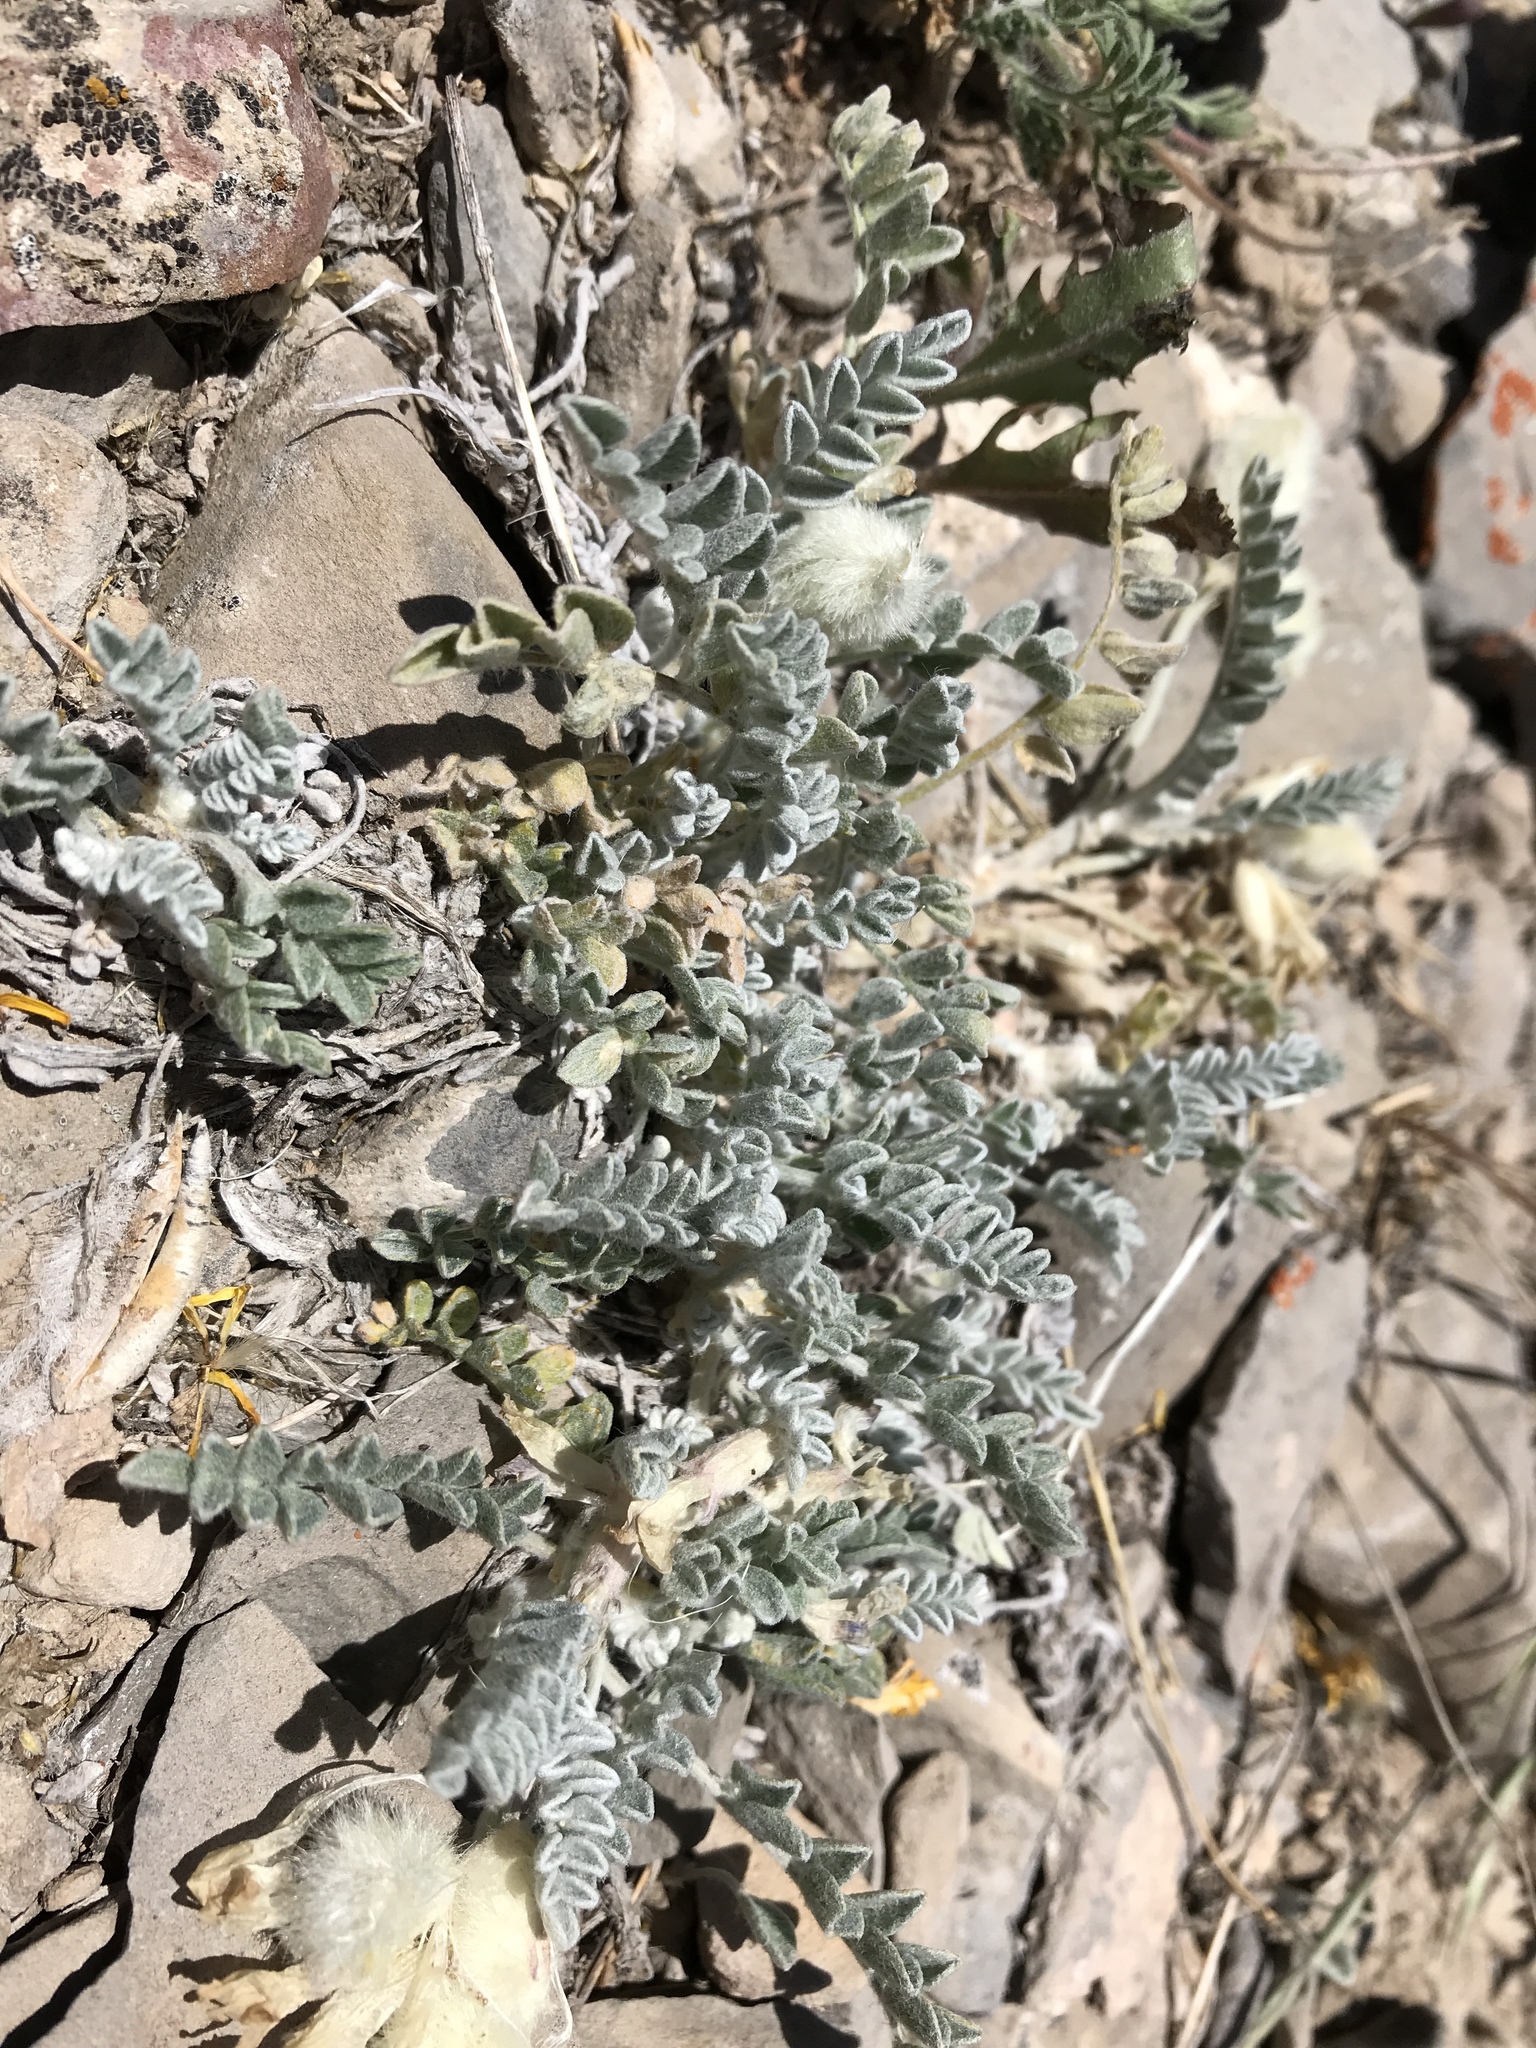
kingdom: Plantae
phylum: Tracheophyta
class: Magnoliopsida
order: Fabales
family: Fabaceae
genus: Astragalus
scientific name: Astragalus utahensis
